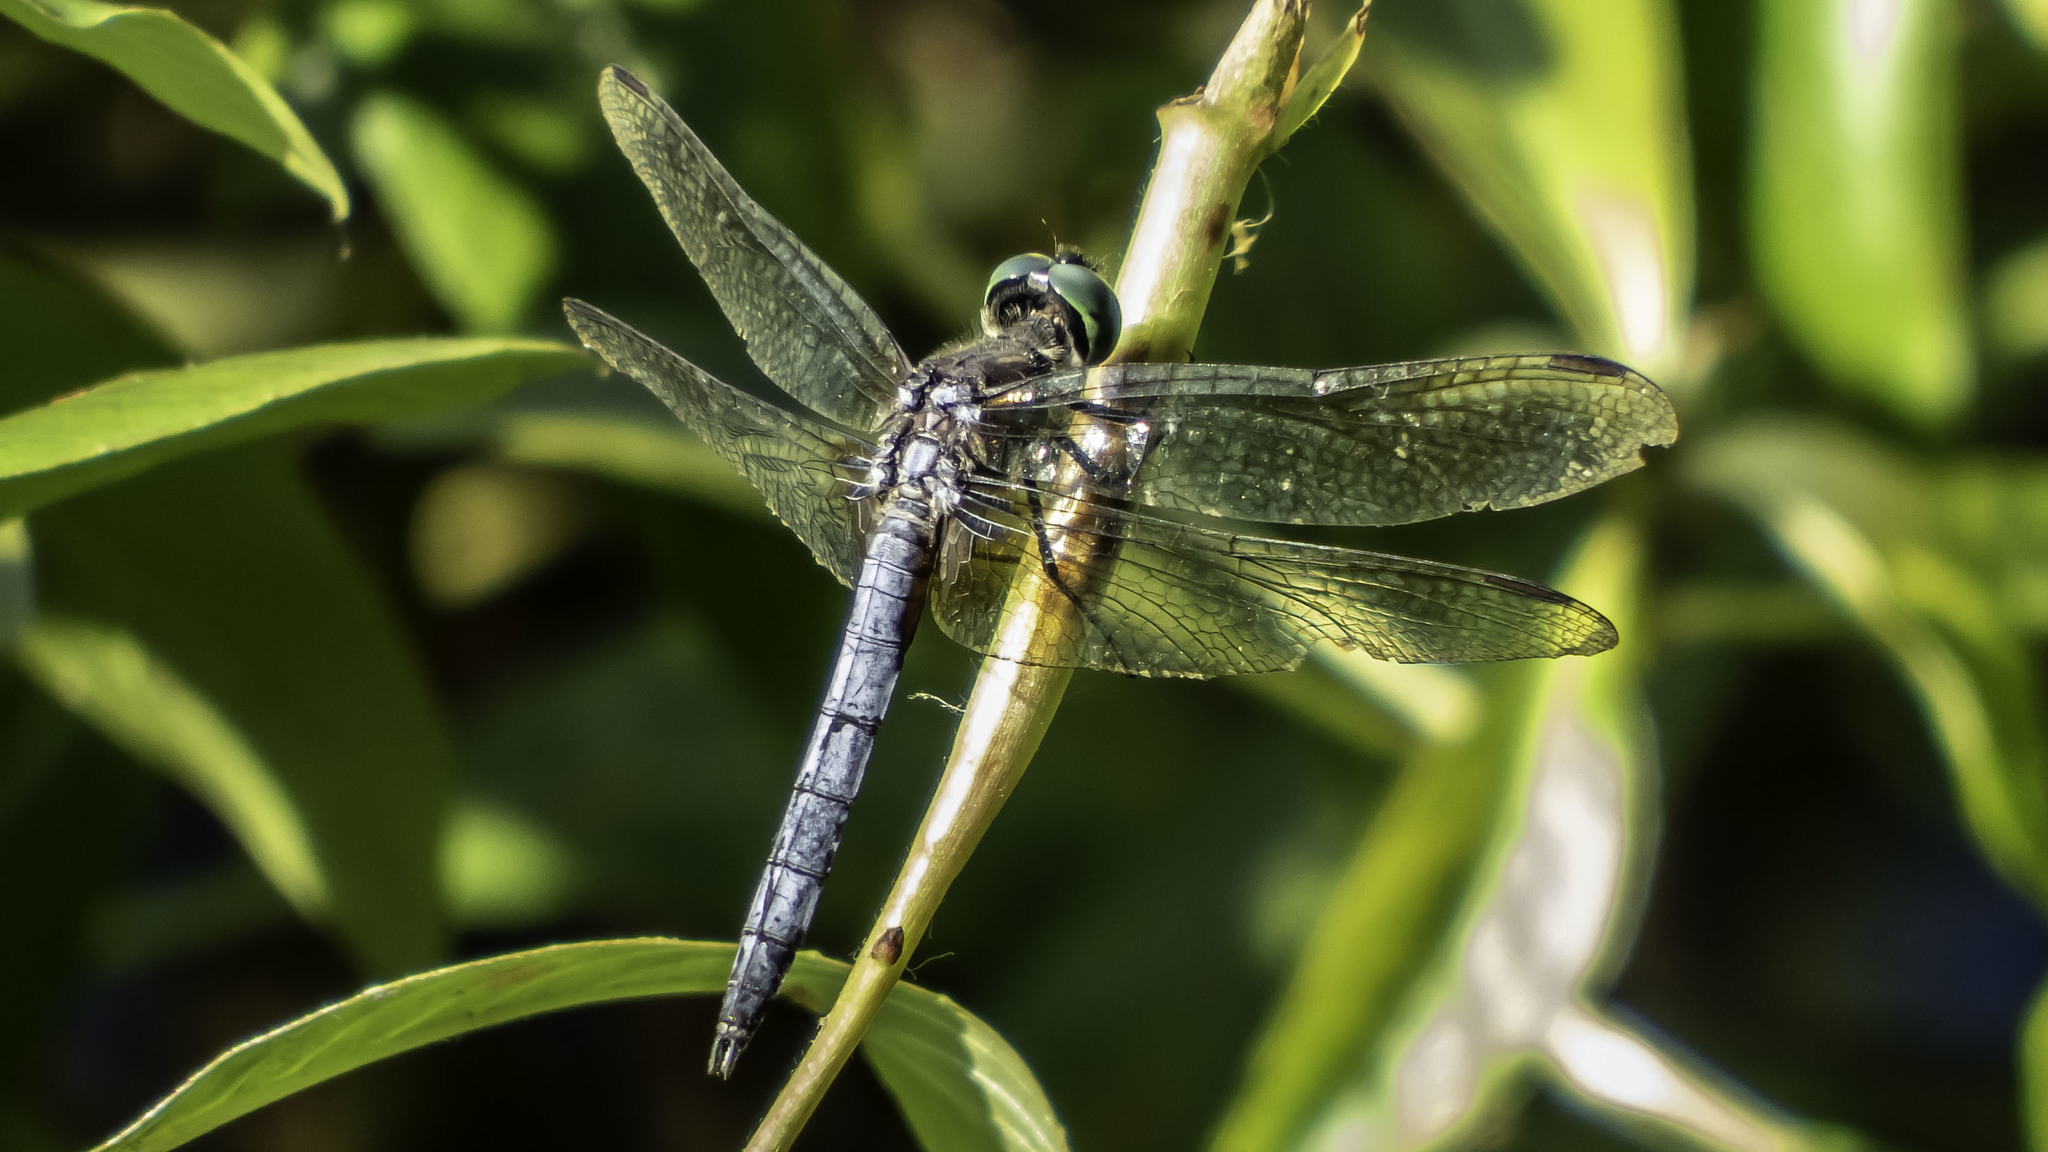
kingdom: Animalia
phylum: Arthropoda
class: Insecta
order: Odonata
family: Libellulidae
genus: Pachydiplax
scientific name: Pachydiplax longipennis
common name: Blue dasher
